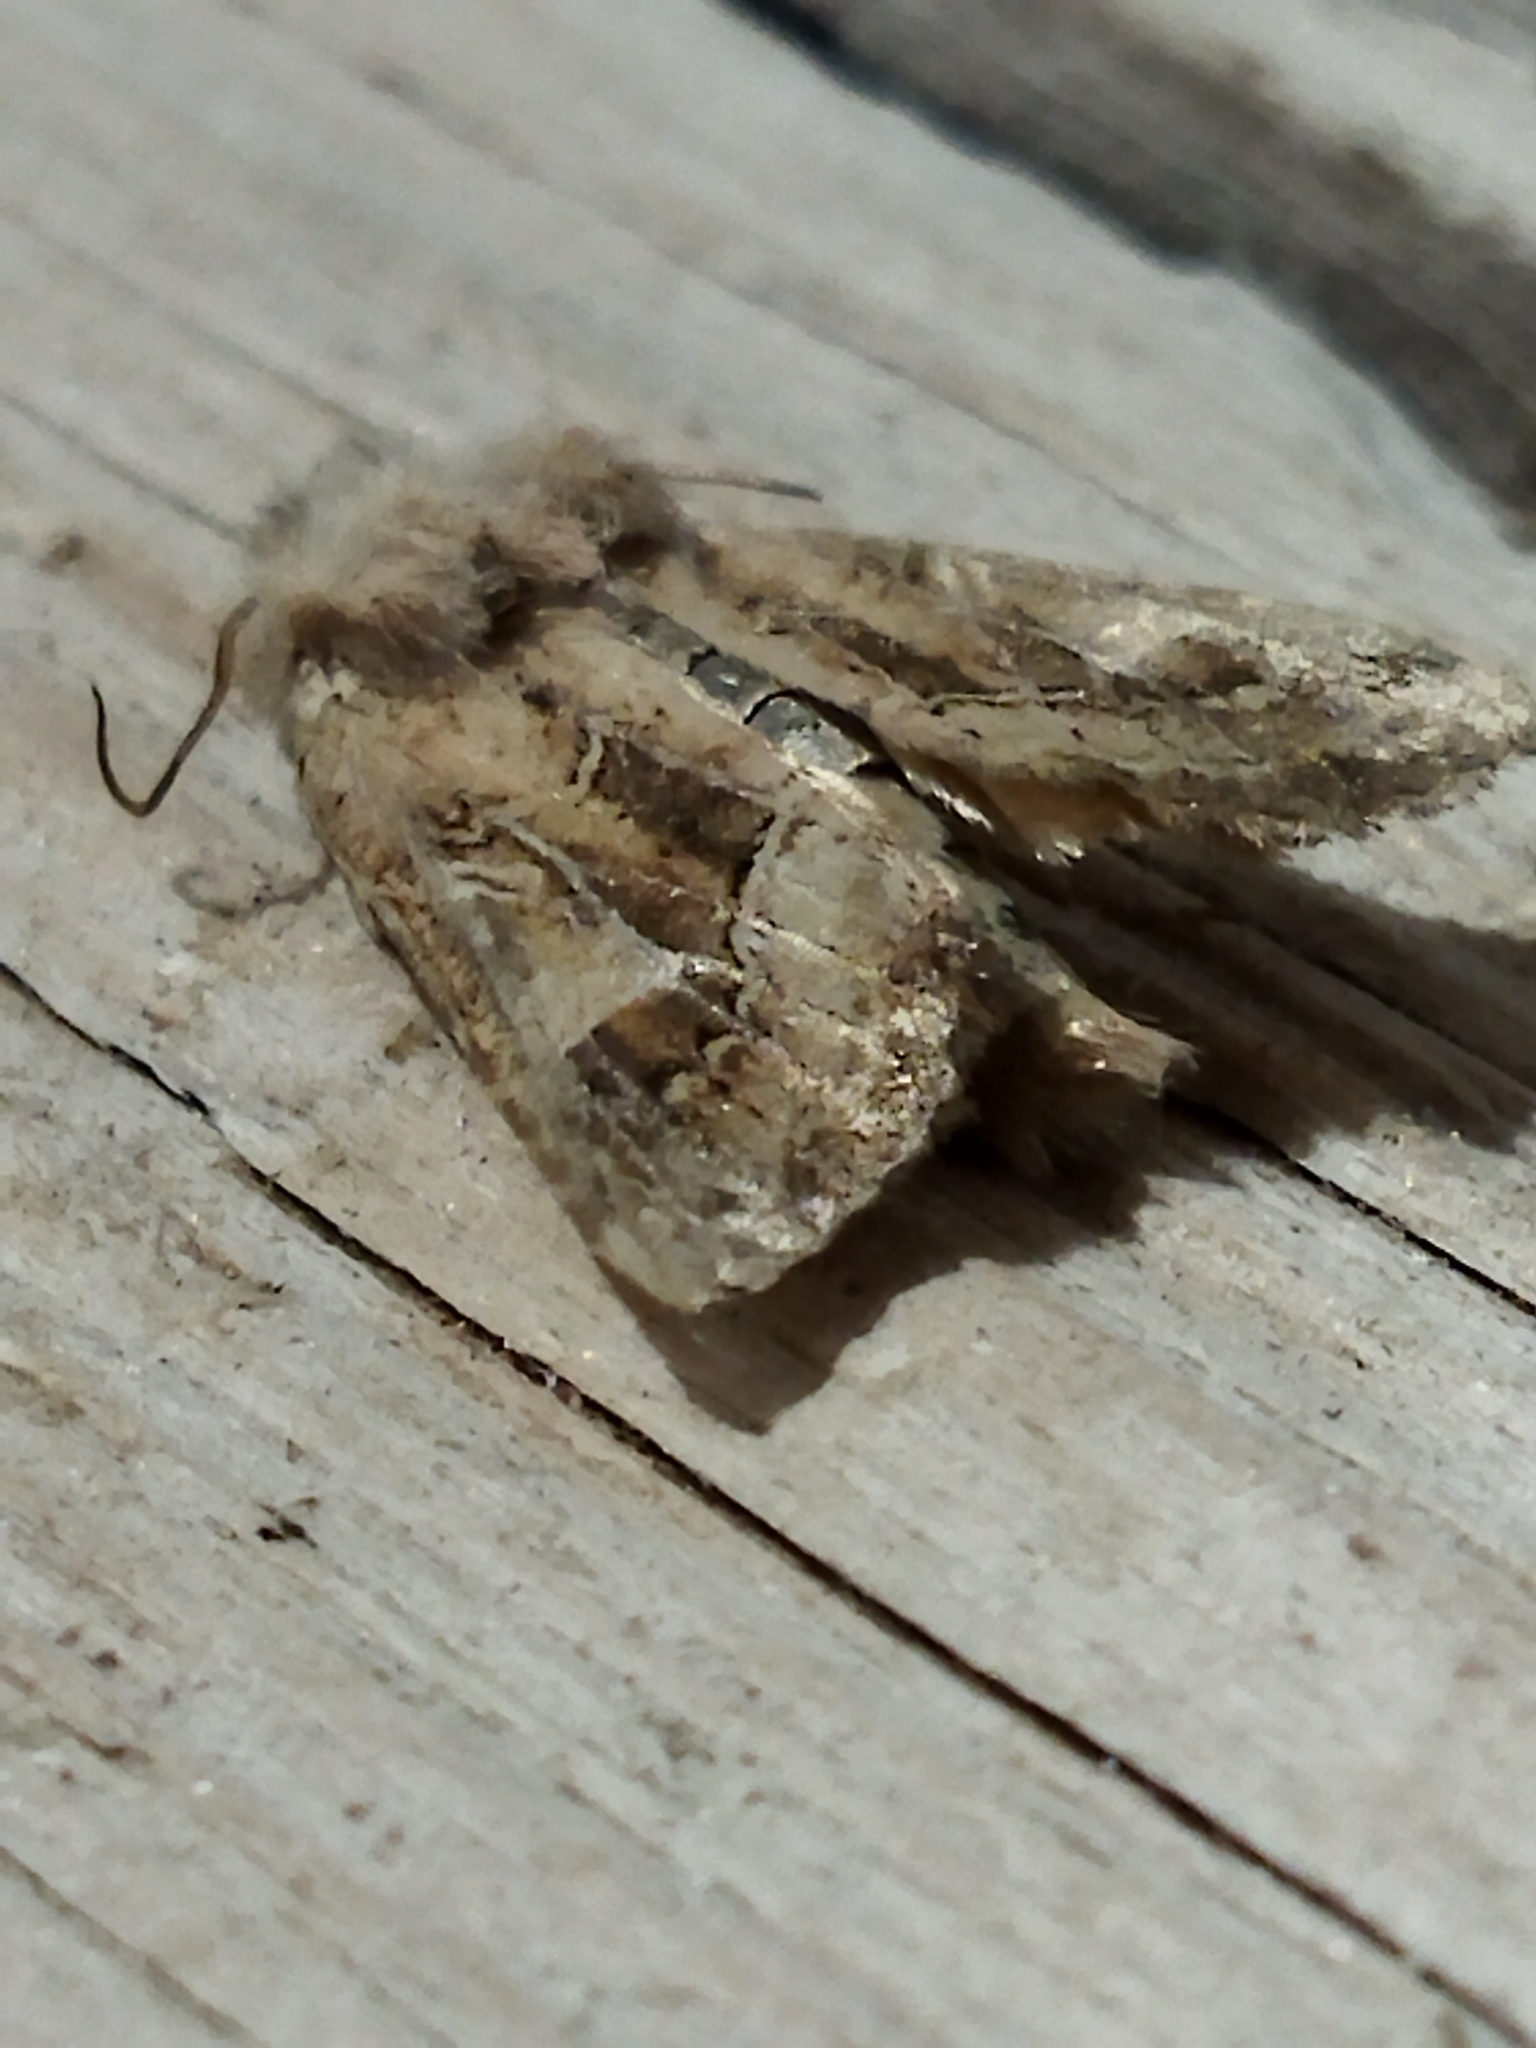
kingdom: Animalia
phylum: Arthropoda
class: Insecta
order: Lepidoptera
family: Noctuidae
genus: Luperina
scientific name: Luperina dumerilii
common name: Dumeril's rustic
